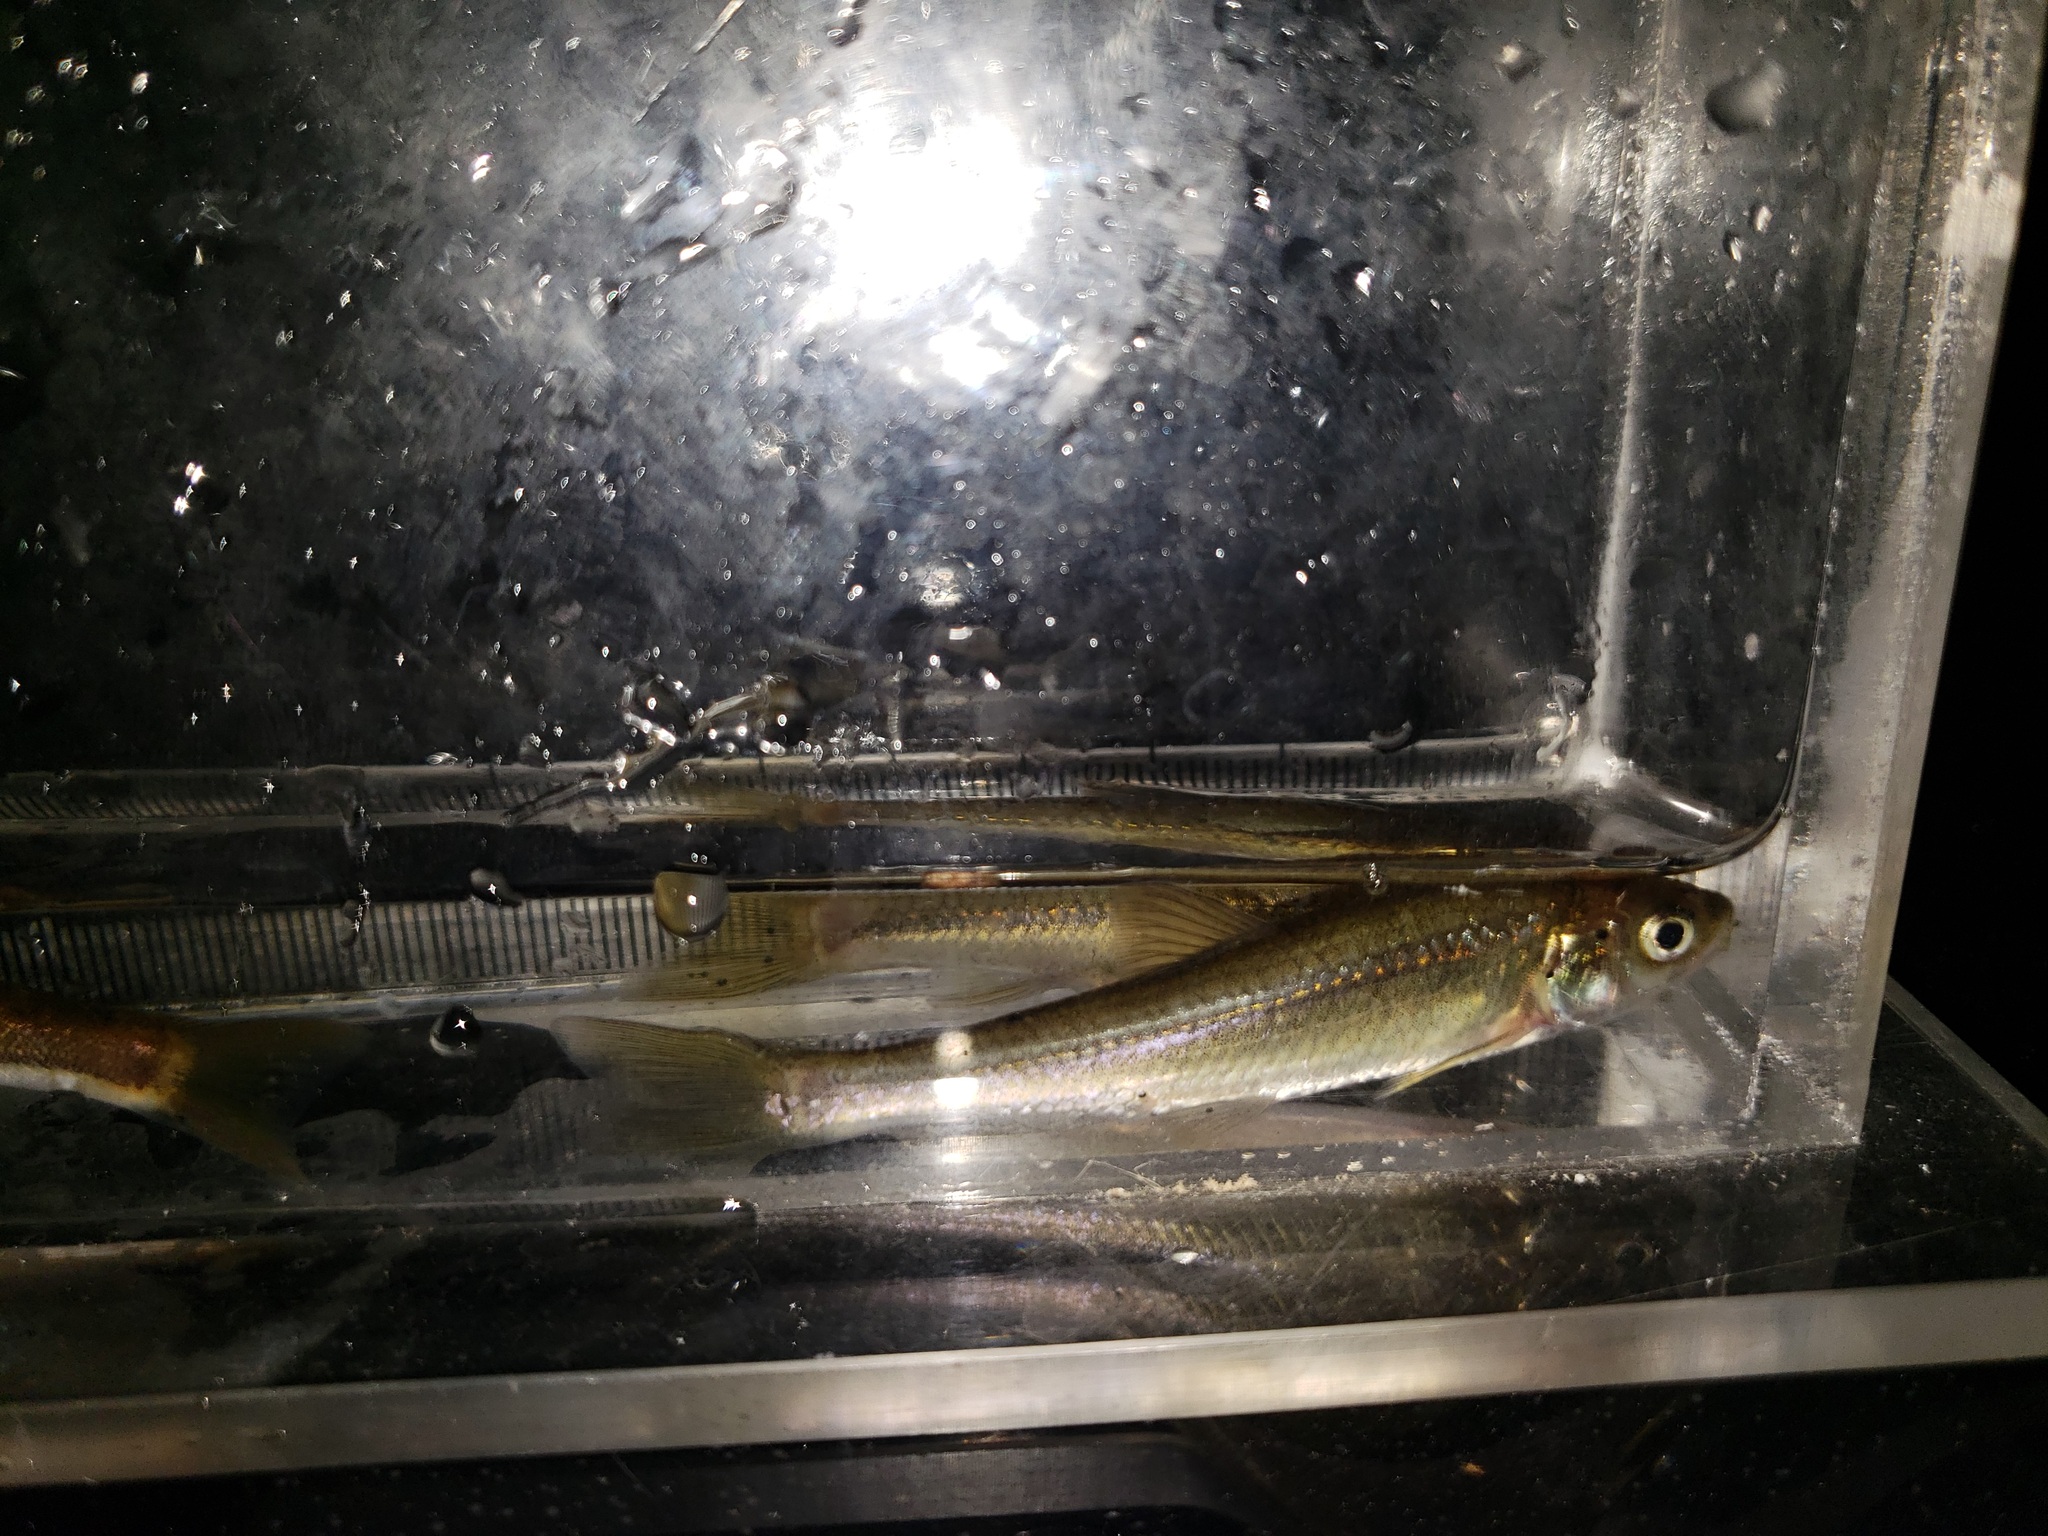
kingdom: Animalia
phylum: Chordata
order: Cypriniformes
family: Cyprinidae
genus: Hybognathus
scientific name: Hybognathus hankinsoni
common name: Brassy minnow
